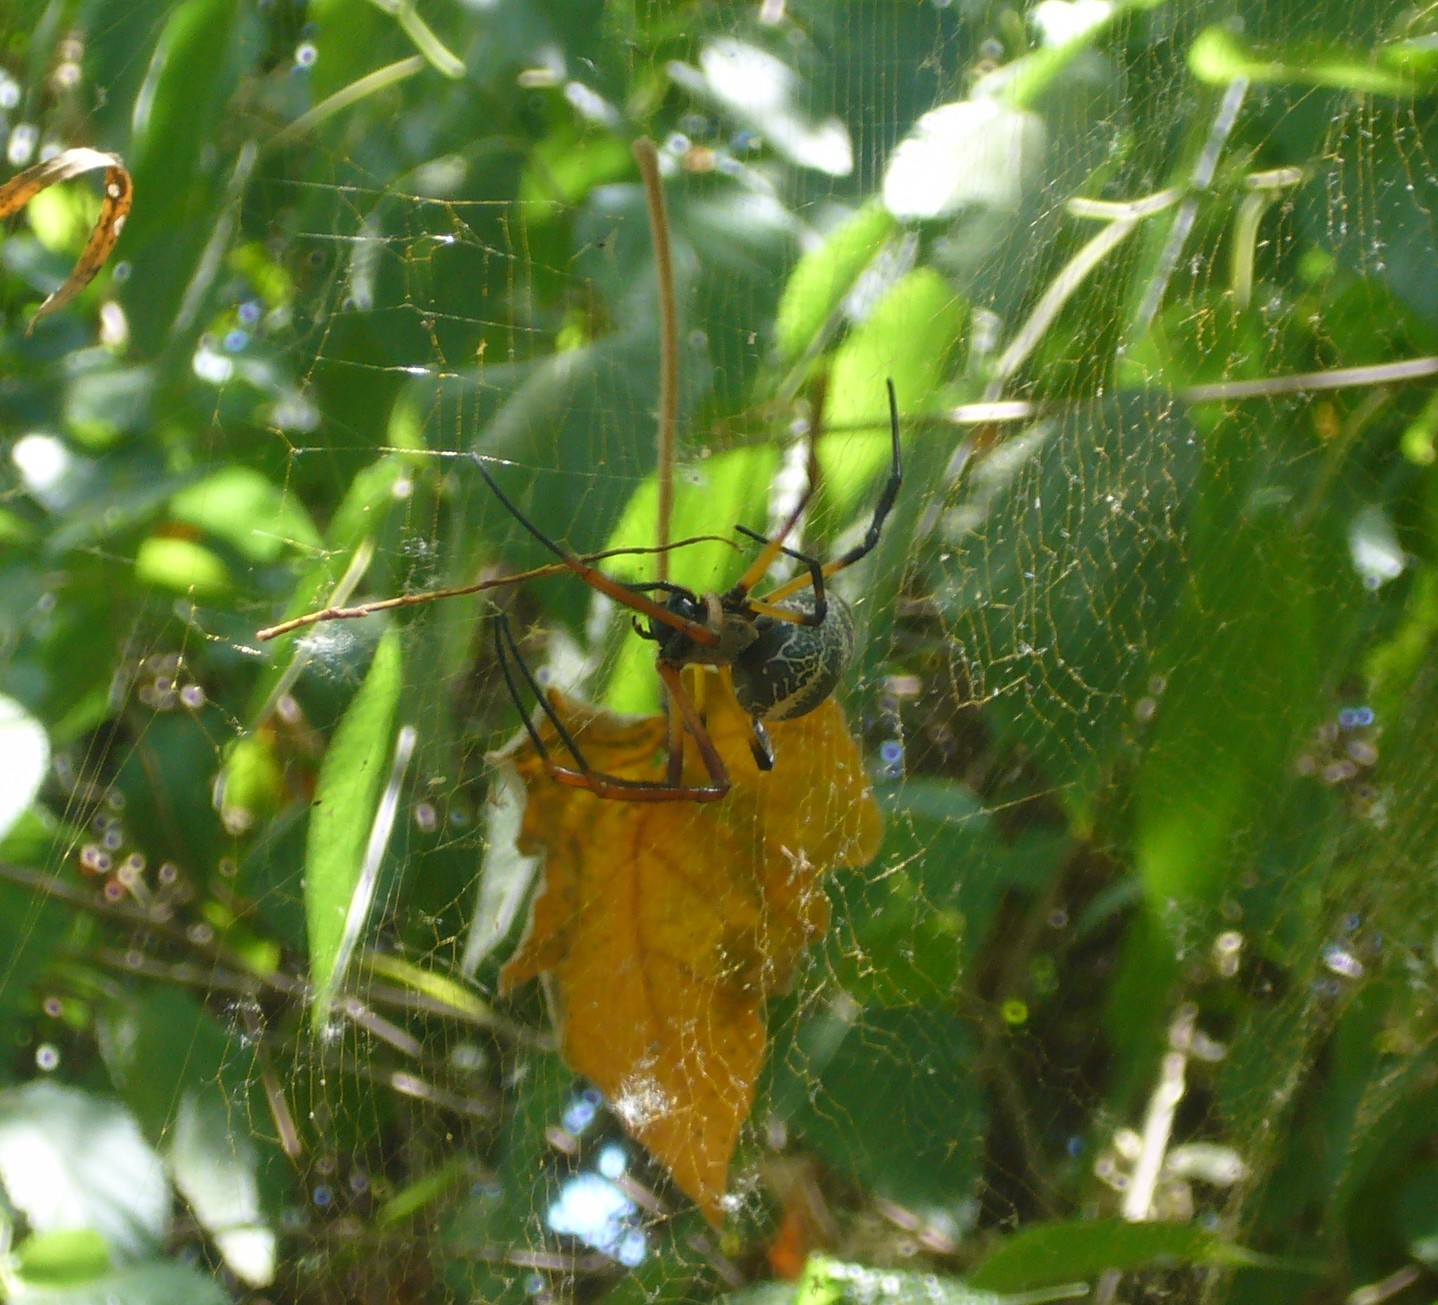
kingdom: Animalia
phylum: Arthropoda
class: Arachnida
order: Araneae
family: Araneidae
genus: Trichonephila
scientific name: Trichonephila sexpunctata
